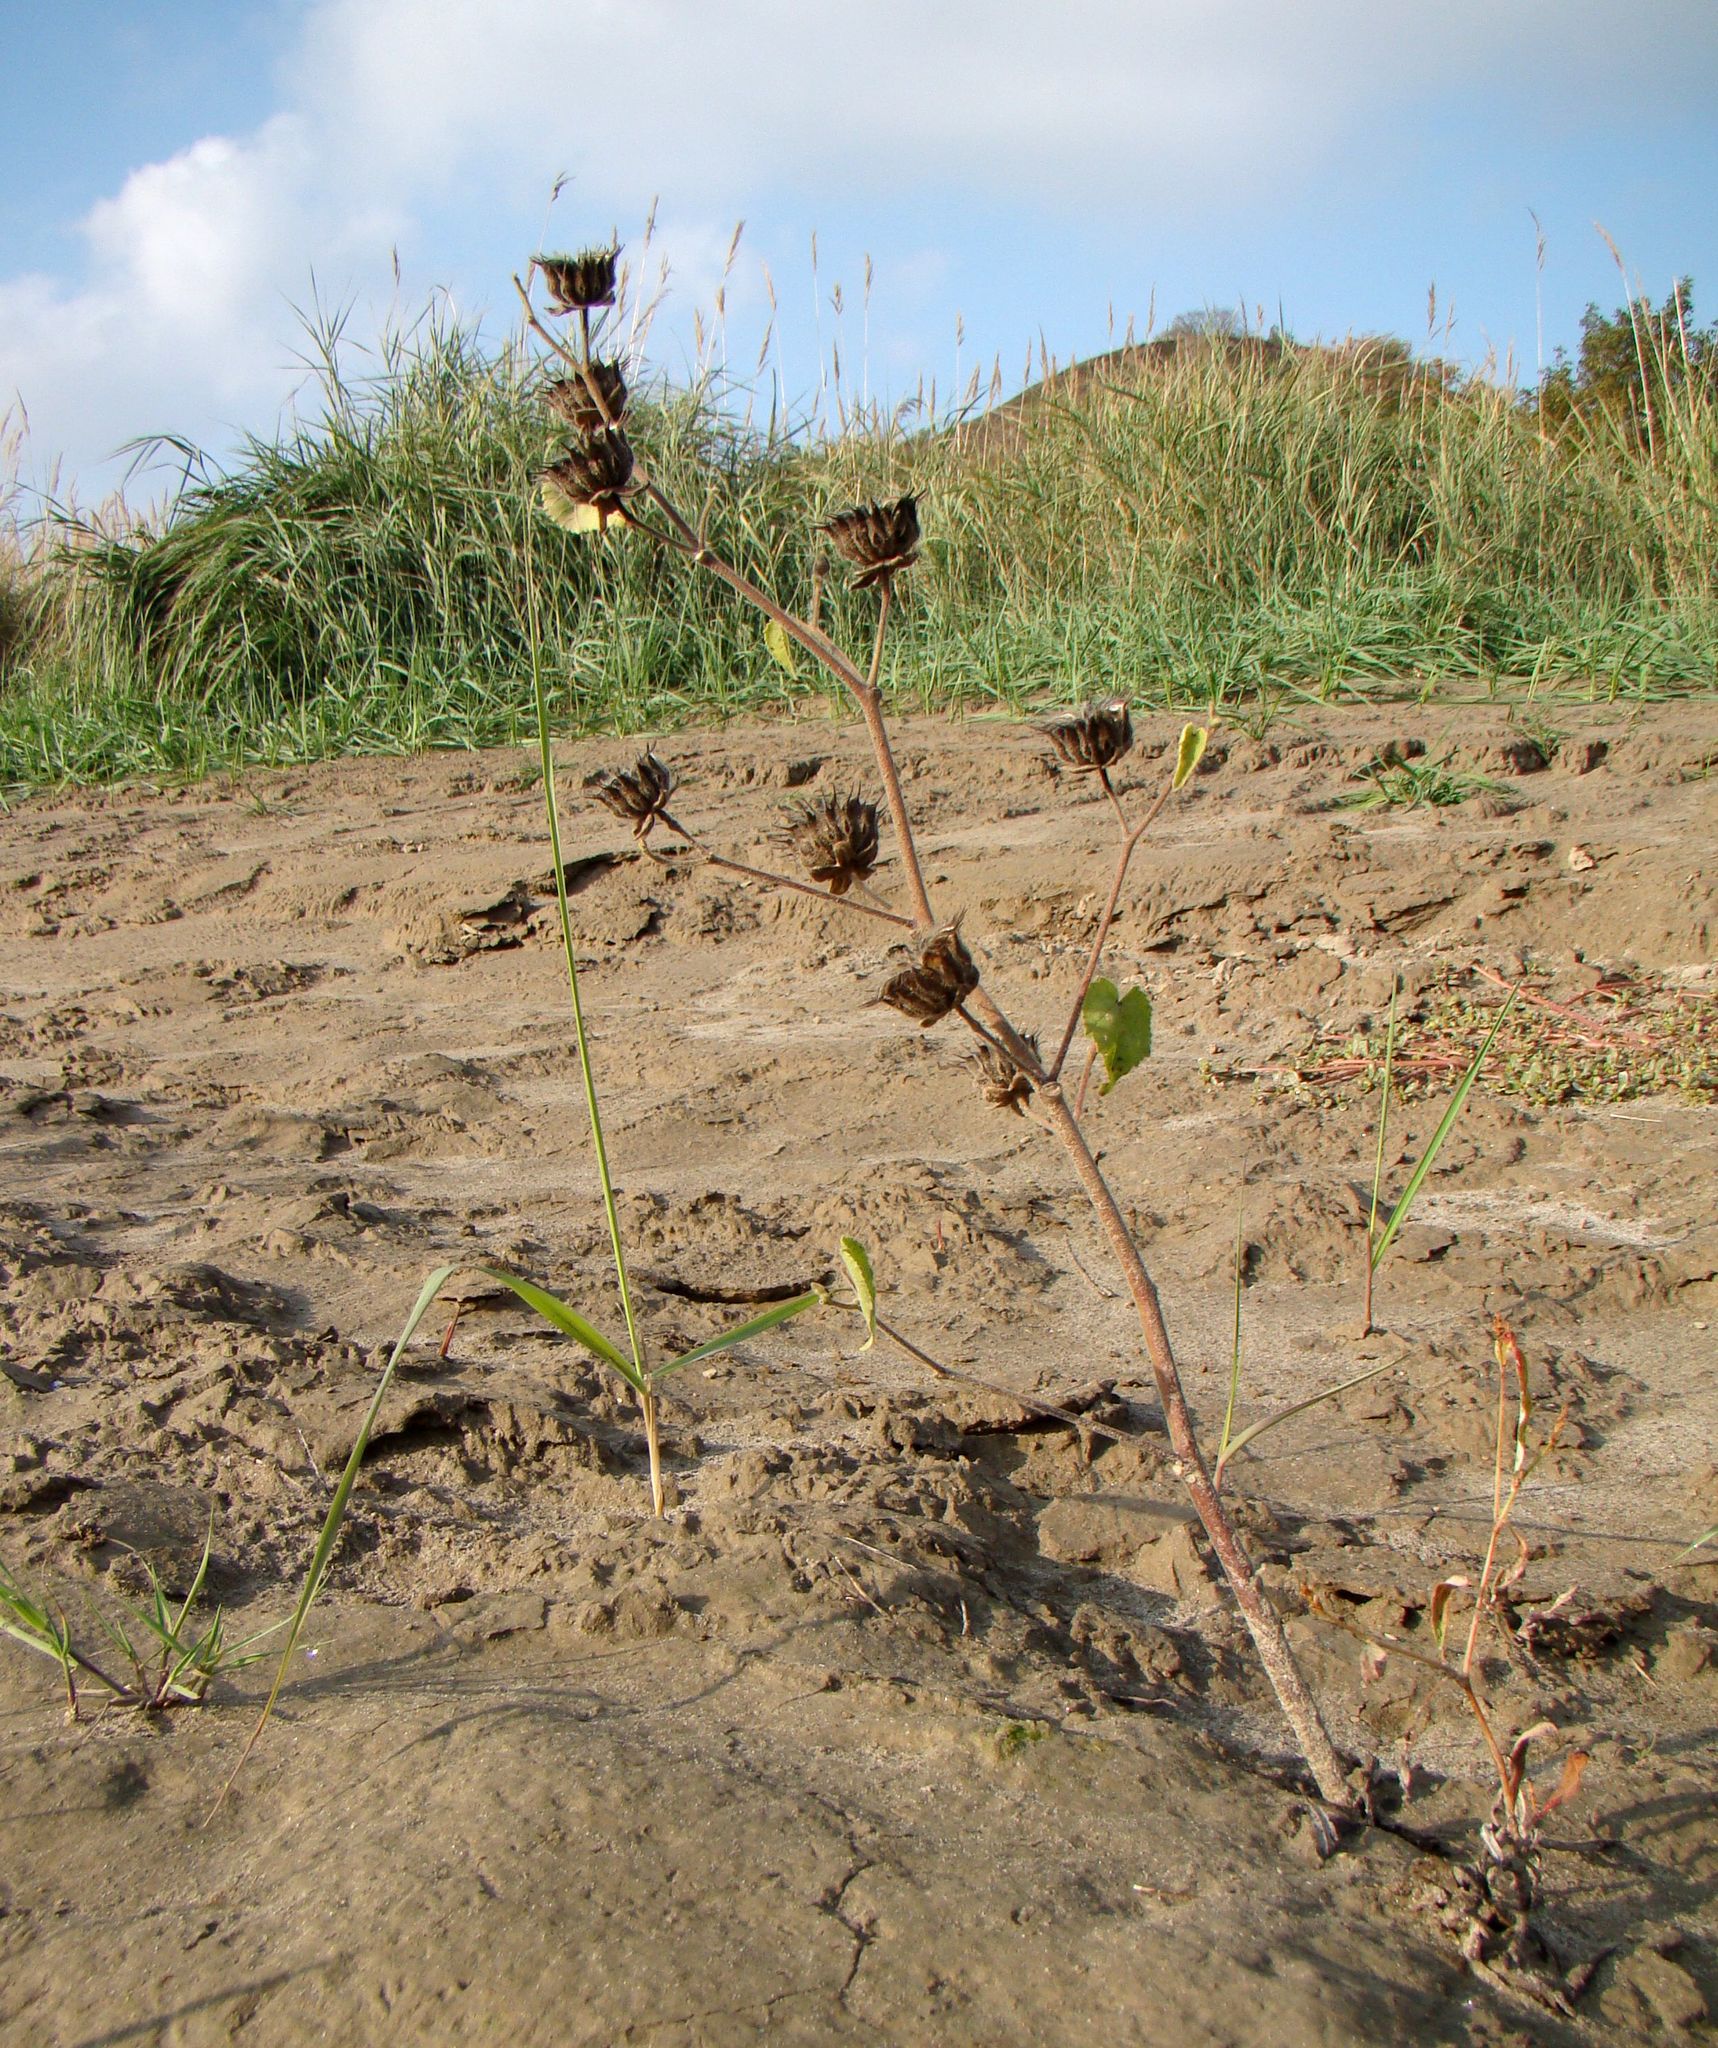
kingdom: Plantae
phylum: Tracheophyta
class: Magnoliopsida
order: Malvales
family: Malvaceae
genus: Abutilon
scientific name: Abutilon theophrasti
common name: Velvetleaf
